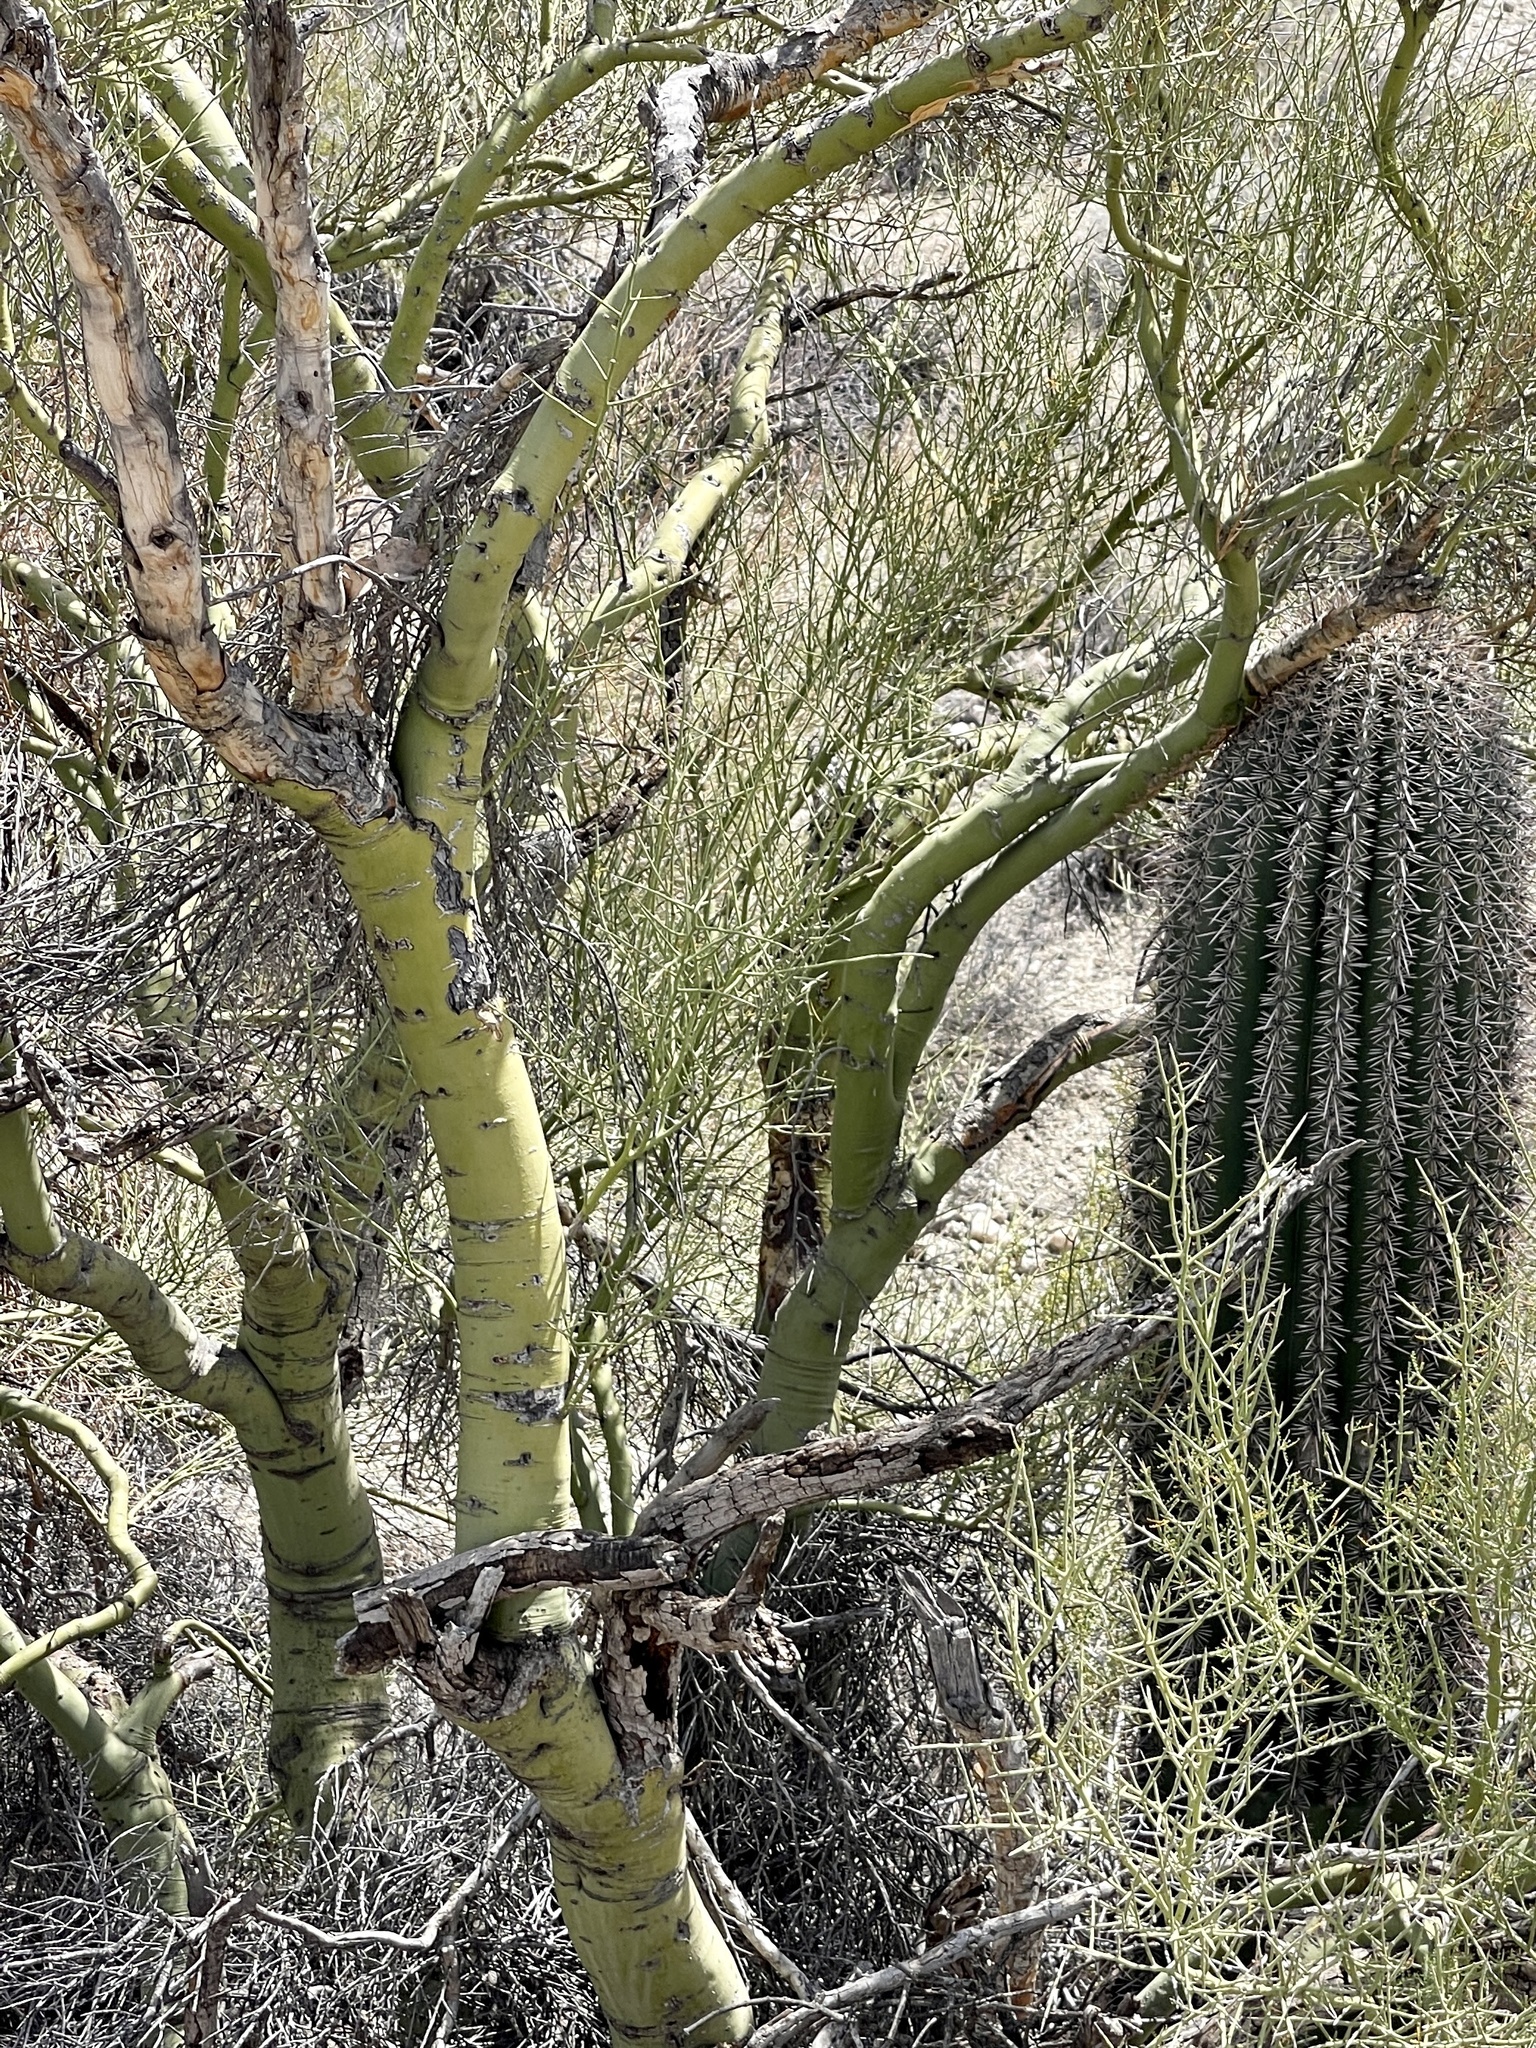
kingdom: Plantae
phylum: Tracheophyta
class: Magnoliopsida
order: Fabales
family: Fabaceae
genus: Parkinsonia
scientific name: Parkinsonia microphylla
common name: Yellow paloverde
